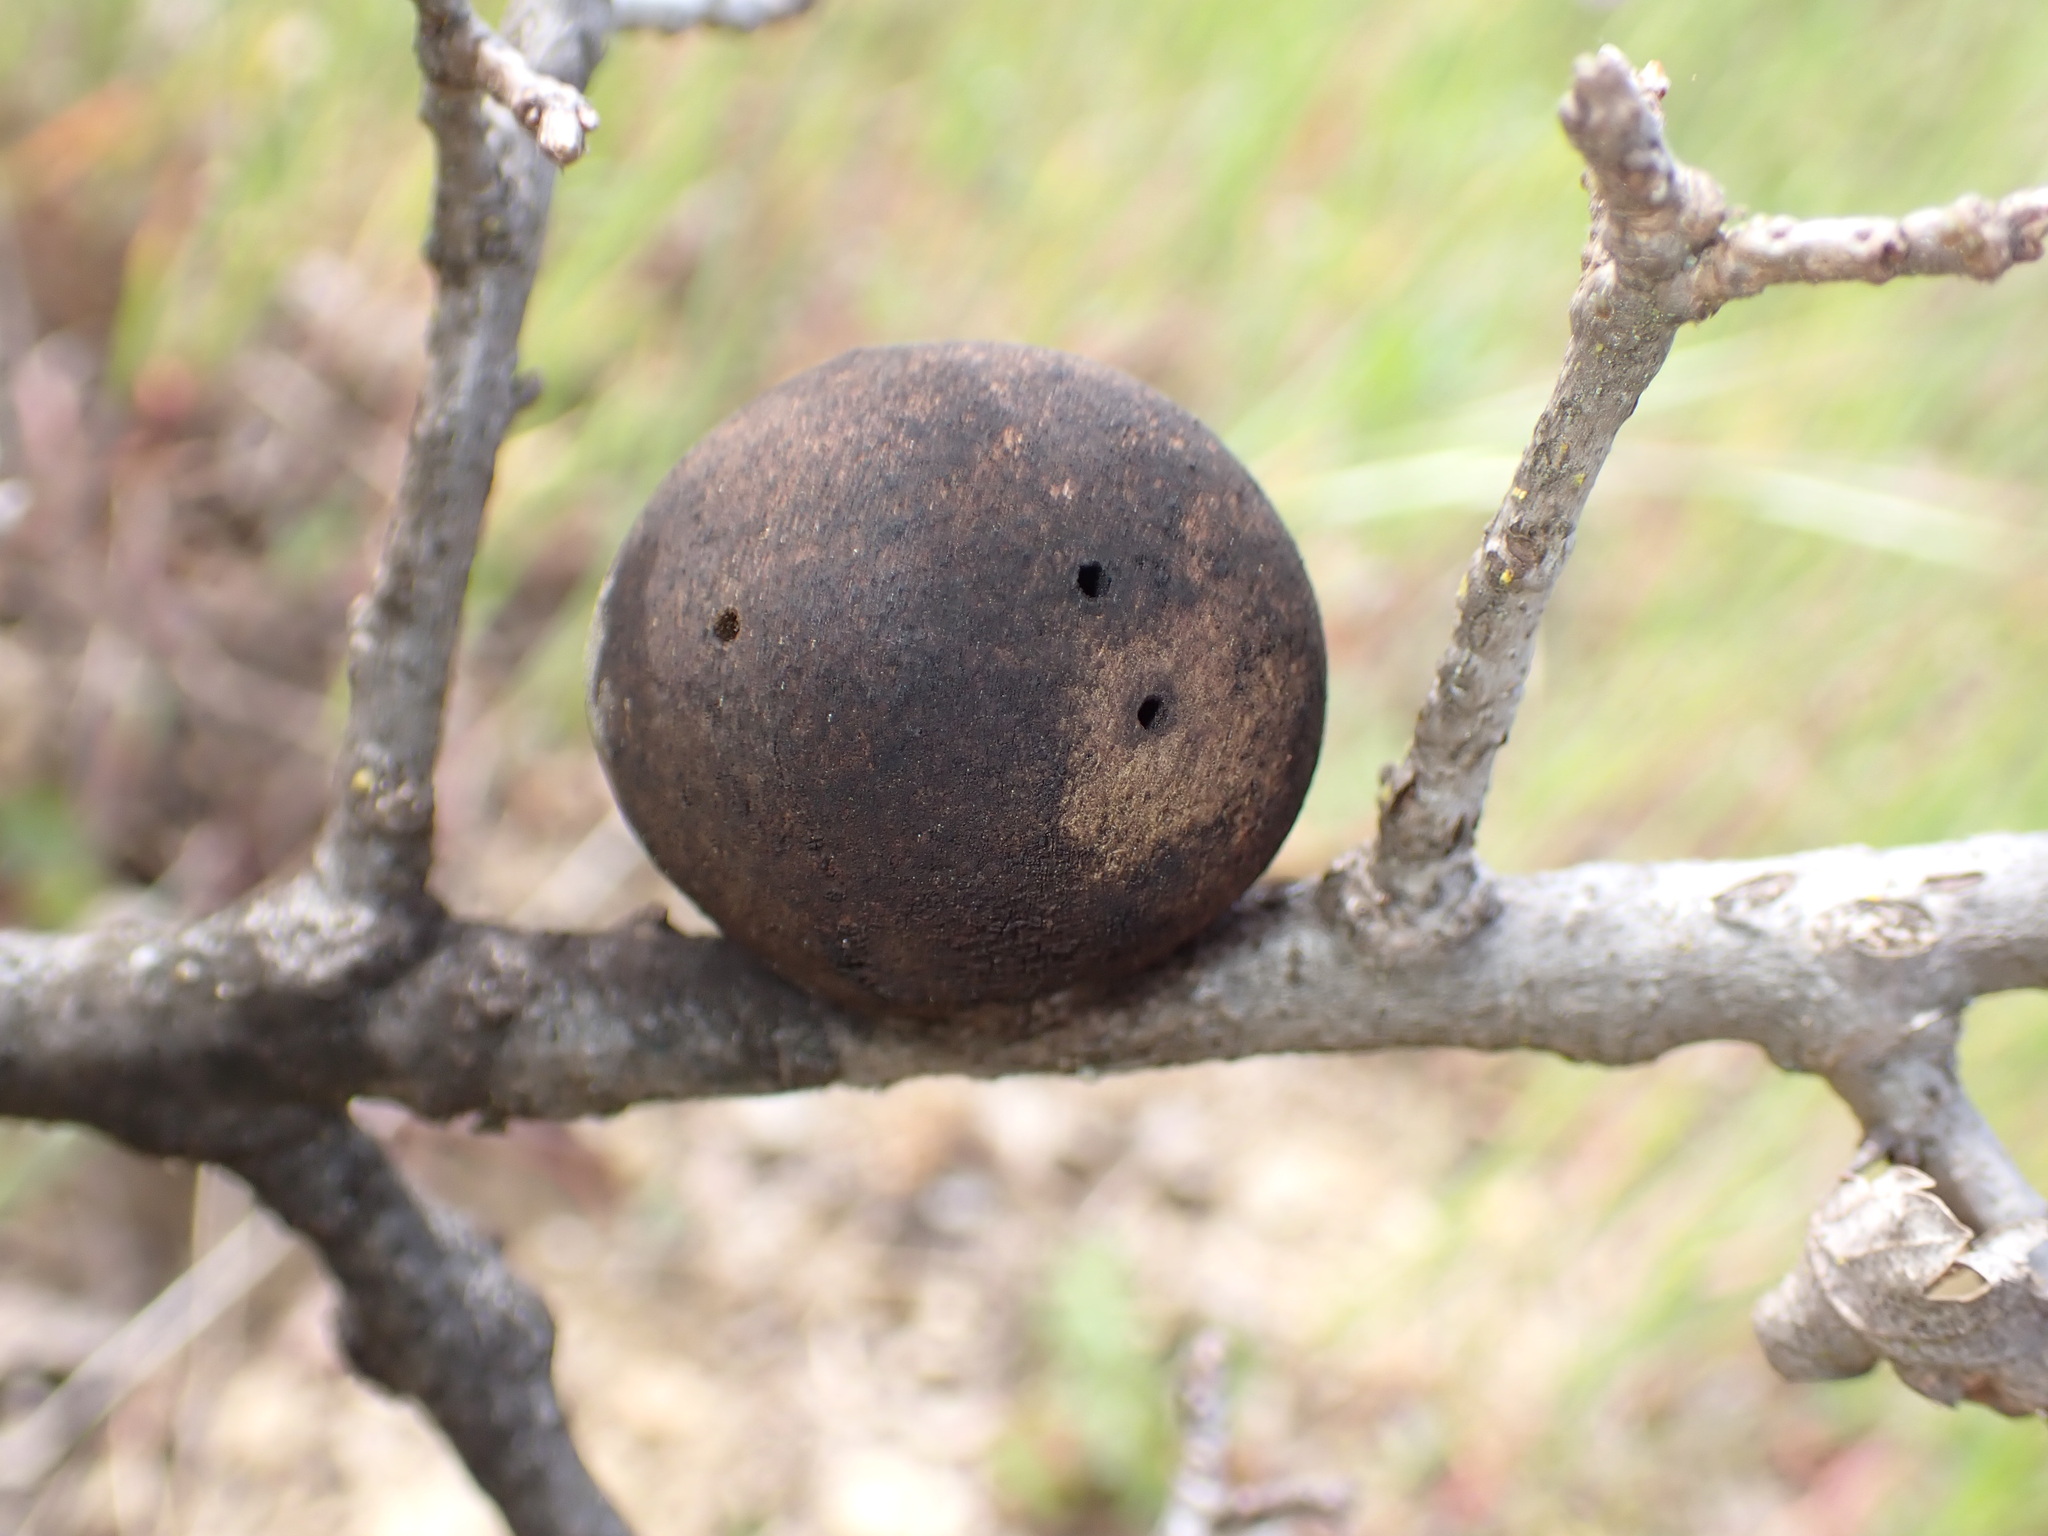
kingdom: Animalia
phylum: Arthropoda
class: Insecta
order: Hymenoptera
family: Cynipidae
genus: Andricus
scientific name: Andricus quercuscalifornicus
